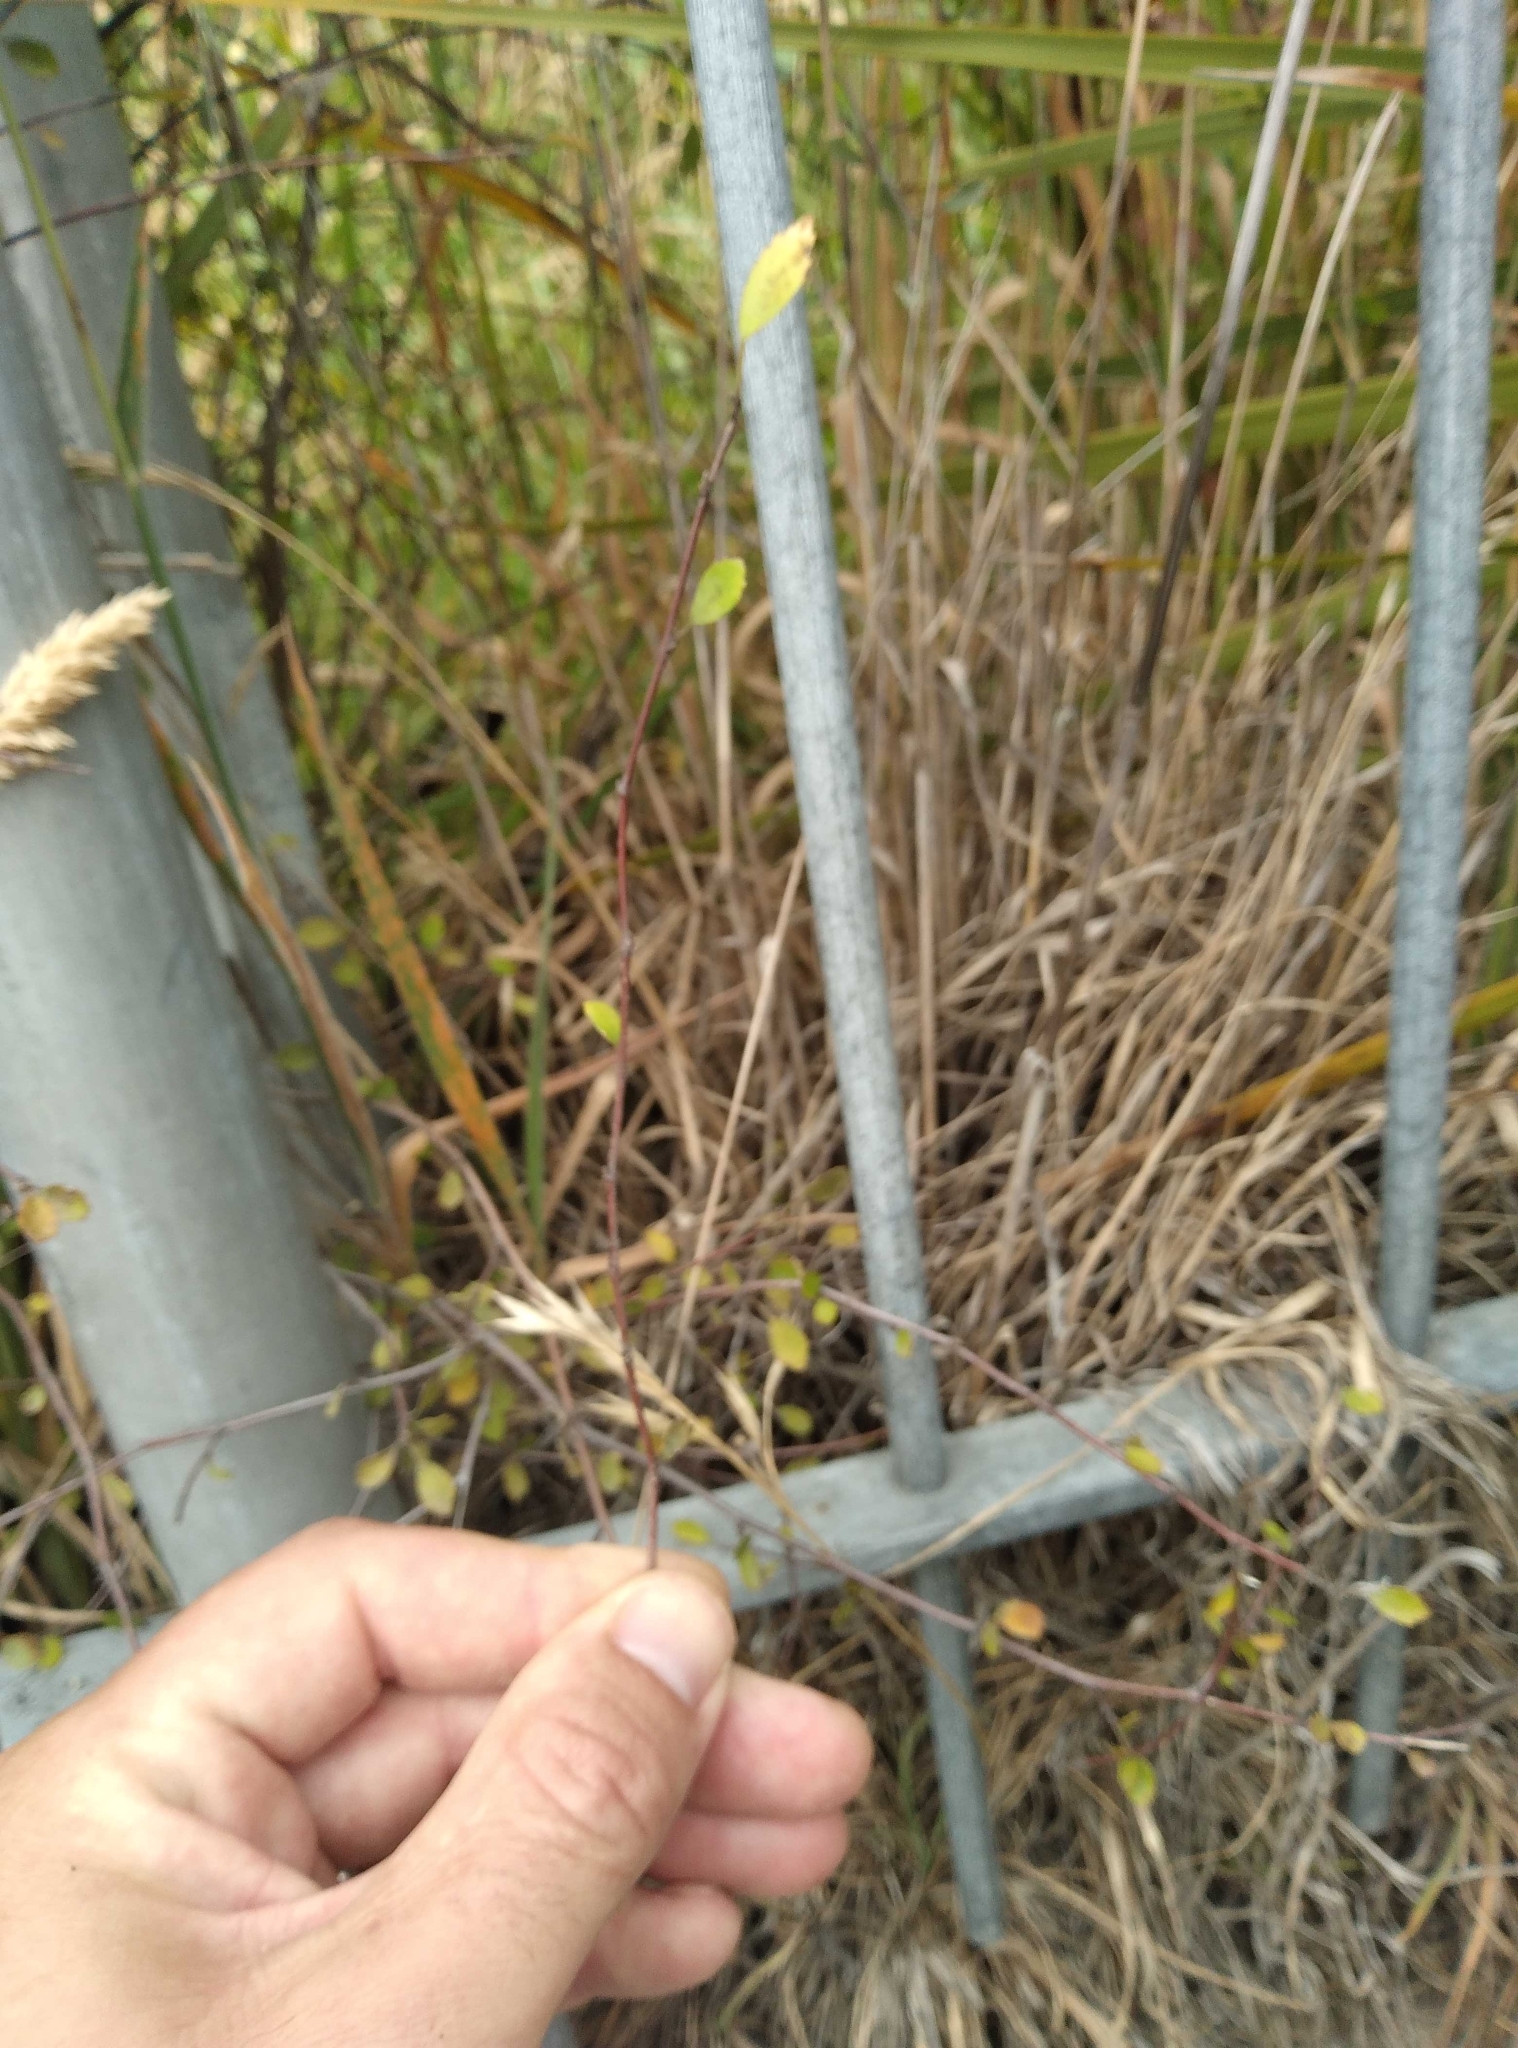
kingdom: Plantae
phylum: Tracheophyta
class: Magnoliopsida
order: Malvales
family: Malvaceae
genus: Plagianthus
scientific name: Plagianthus cymosus
